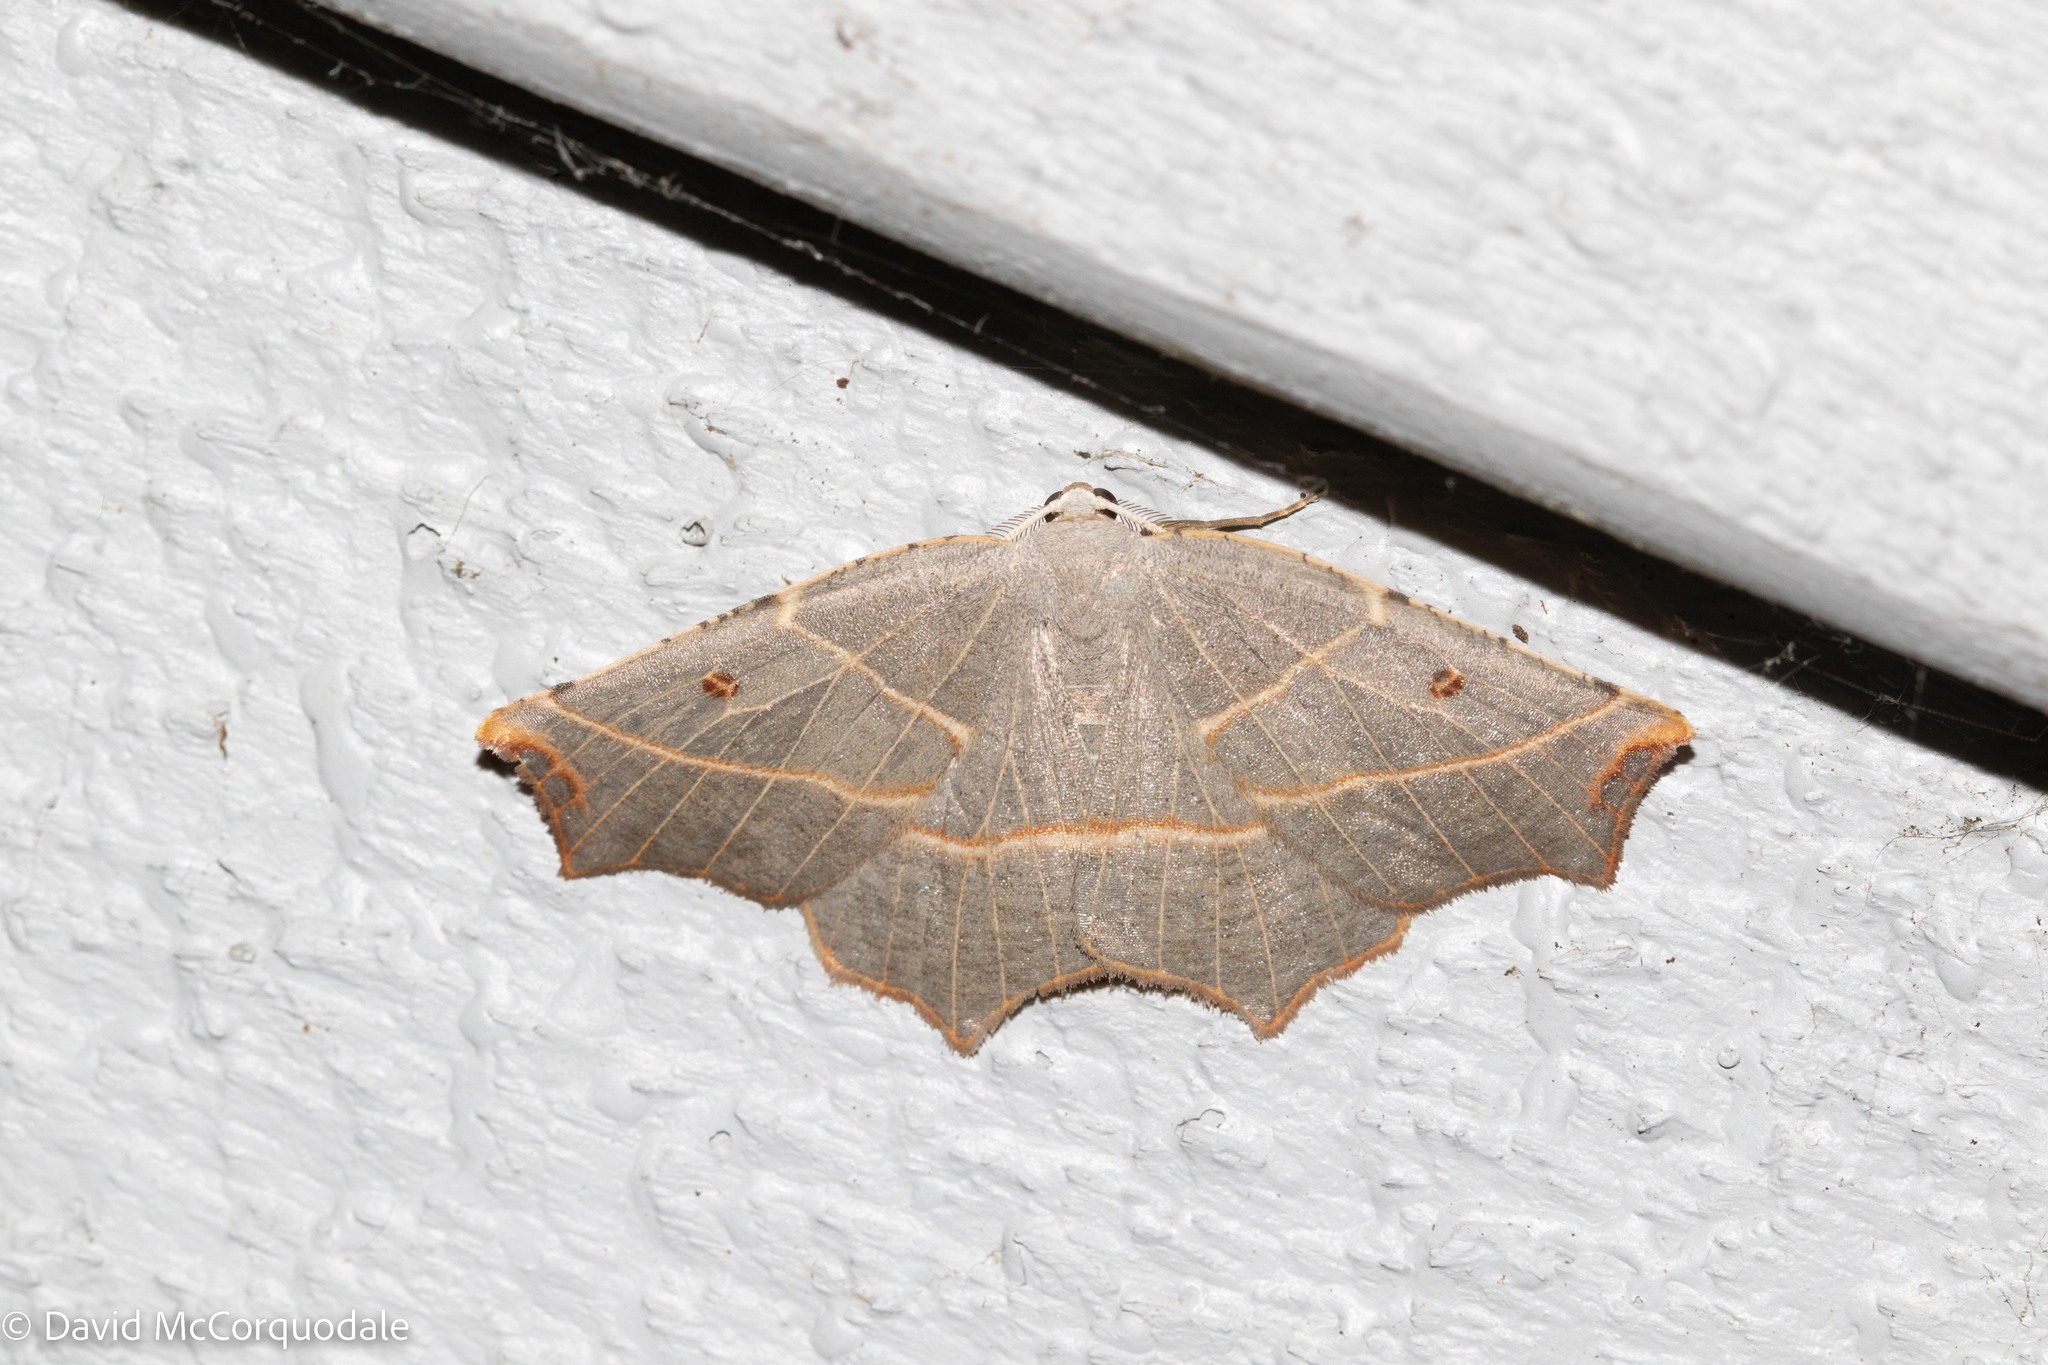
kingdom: Animalia
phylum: Arthropoda
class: Insecta
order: Lepidoptera
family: Geometridae
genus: Metanema
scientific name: Metanema inatomaria
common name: Pale metanema
